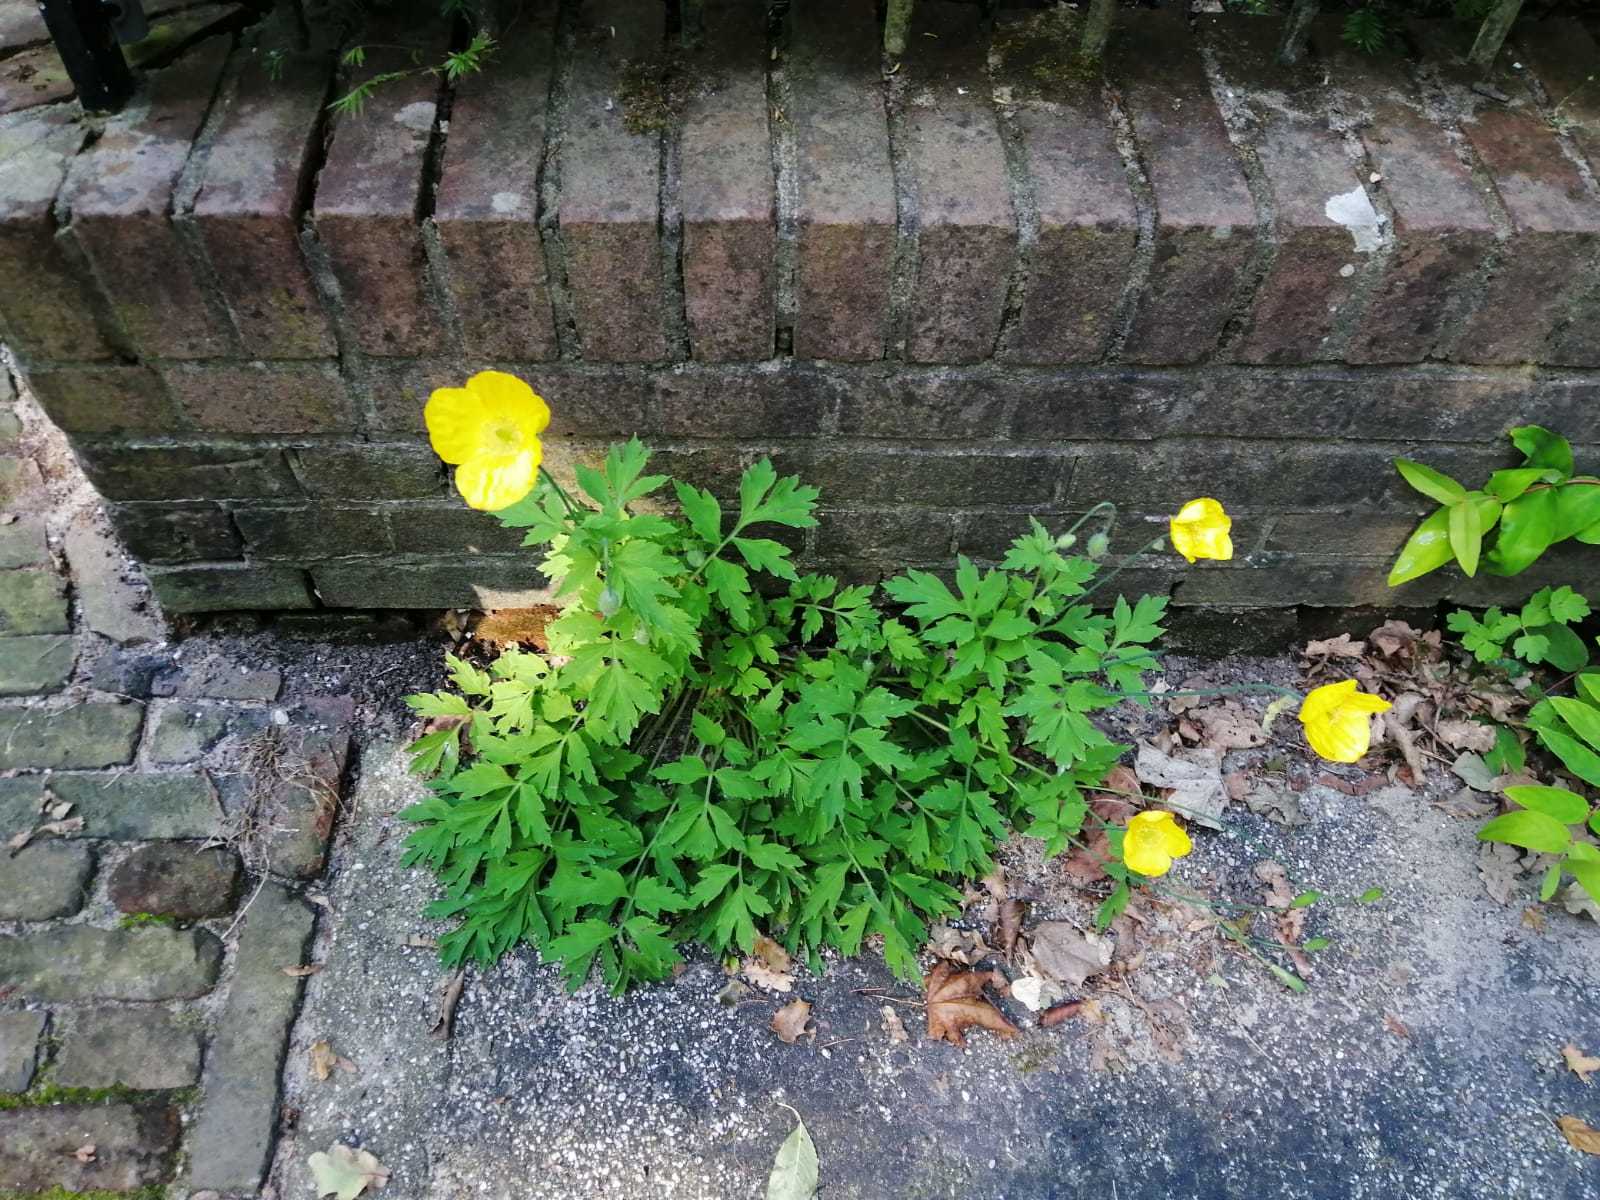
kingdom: Plantae
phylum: Tracheophyta
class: Magnoliopsida
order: Ranunculales
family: Papaveraceae
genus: Papaver
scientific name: Papaver cambricum
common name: Poppy
